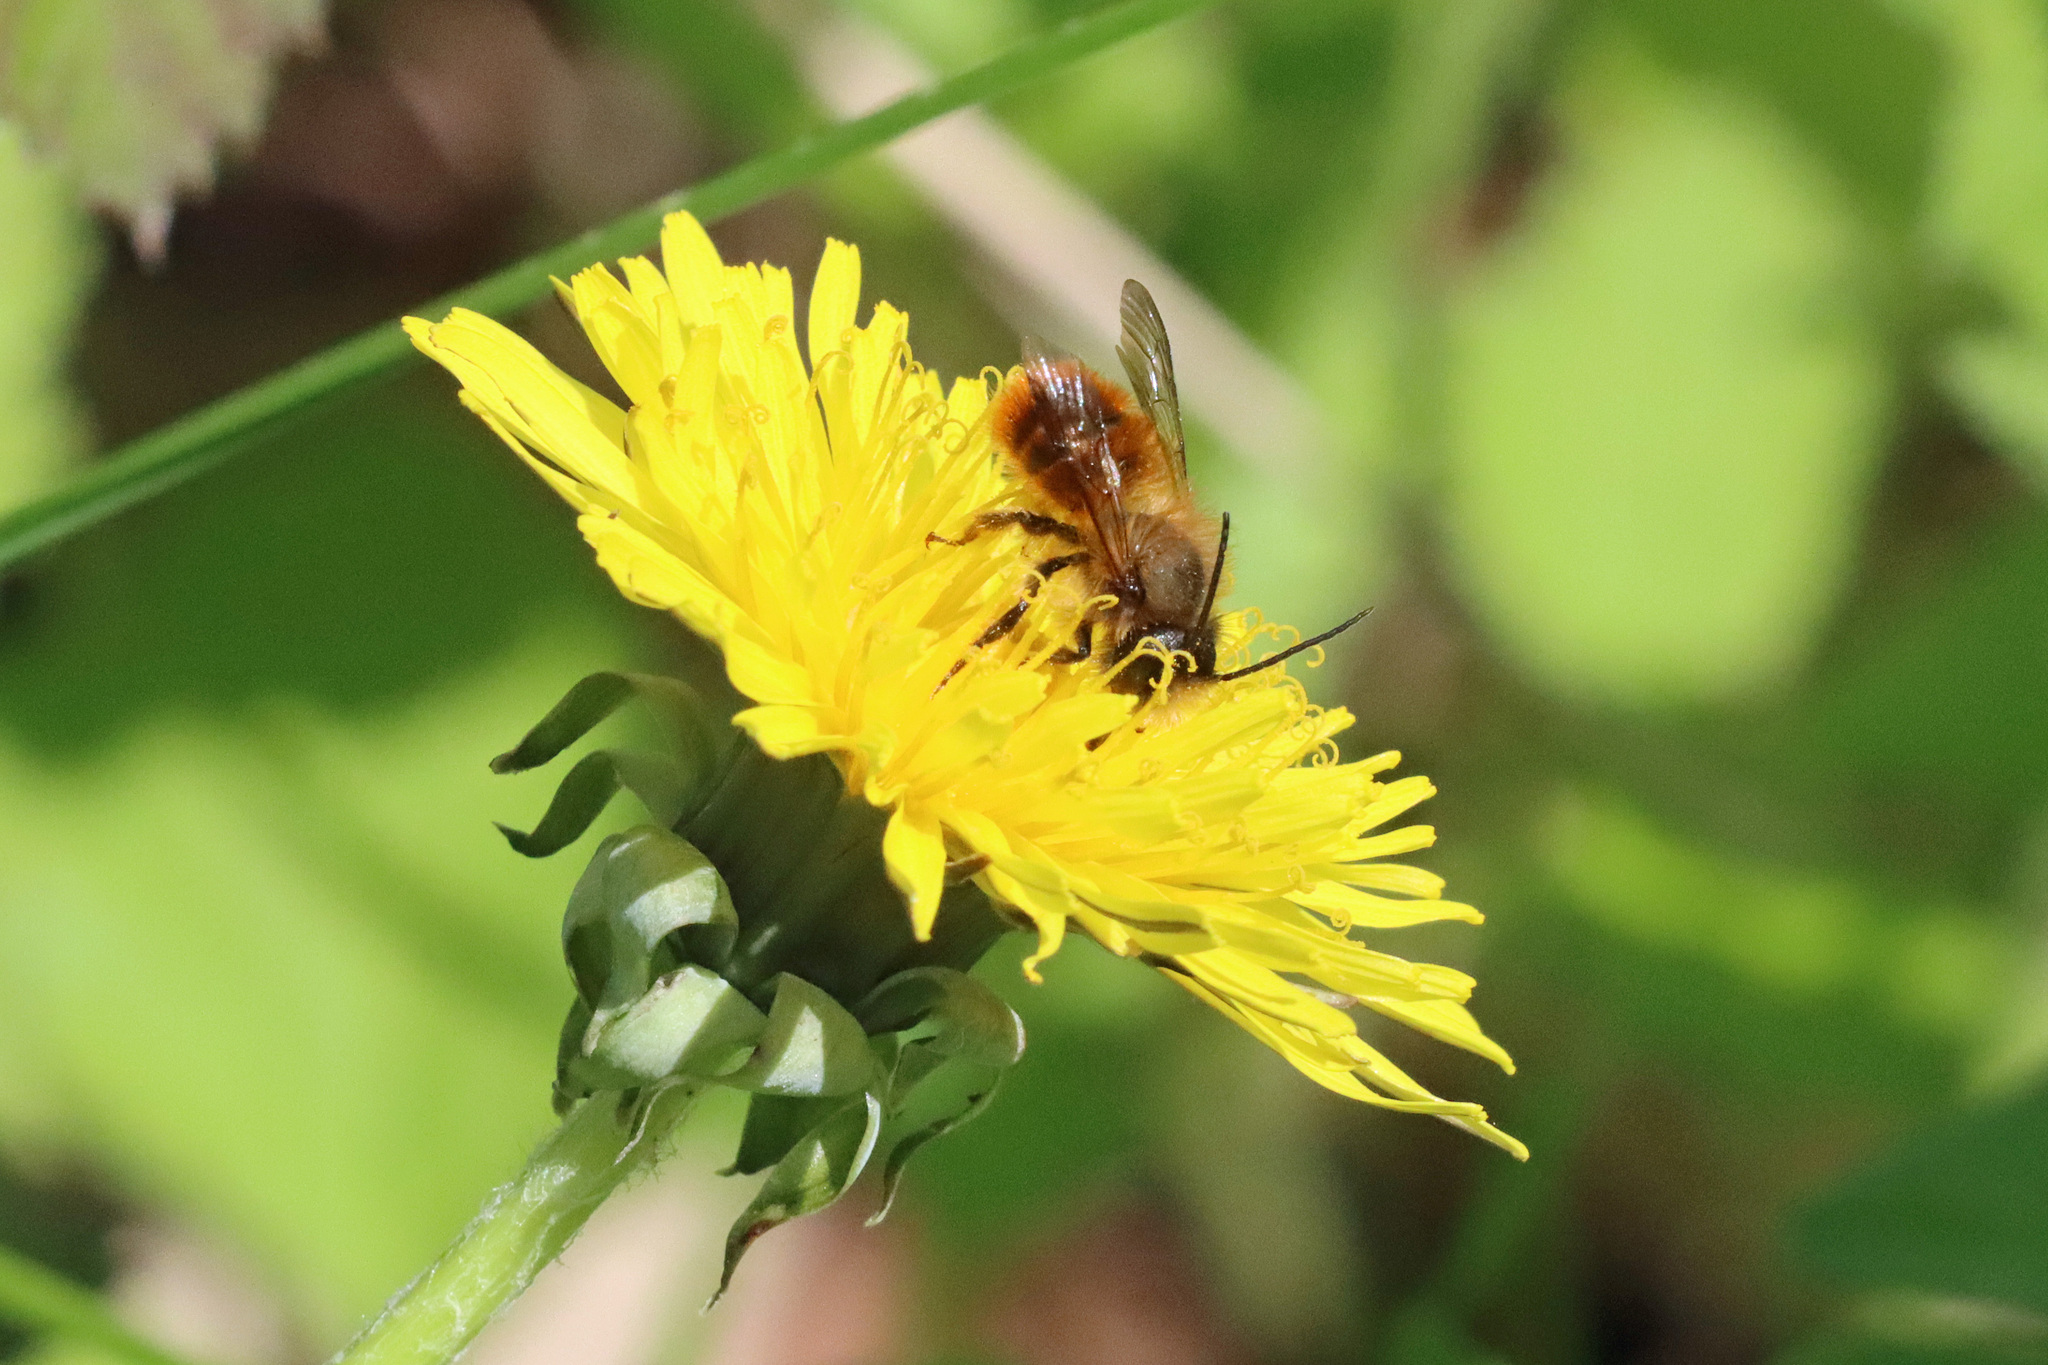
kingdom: Animalia
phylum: Arthropoda
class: Insecta
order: Hymenoptera
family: Megachilidae
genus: Osmia
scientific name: Osmia bicornis
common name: Red mason bee
